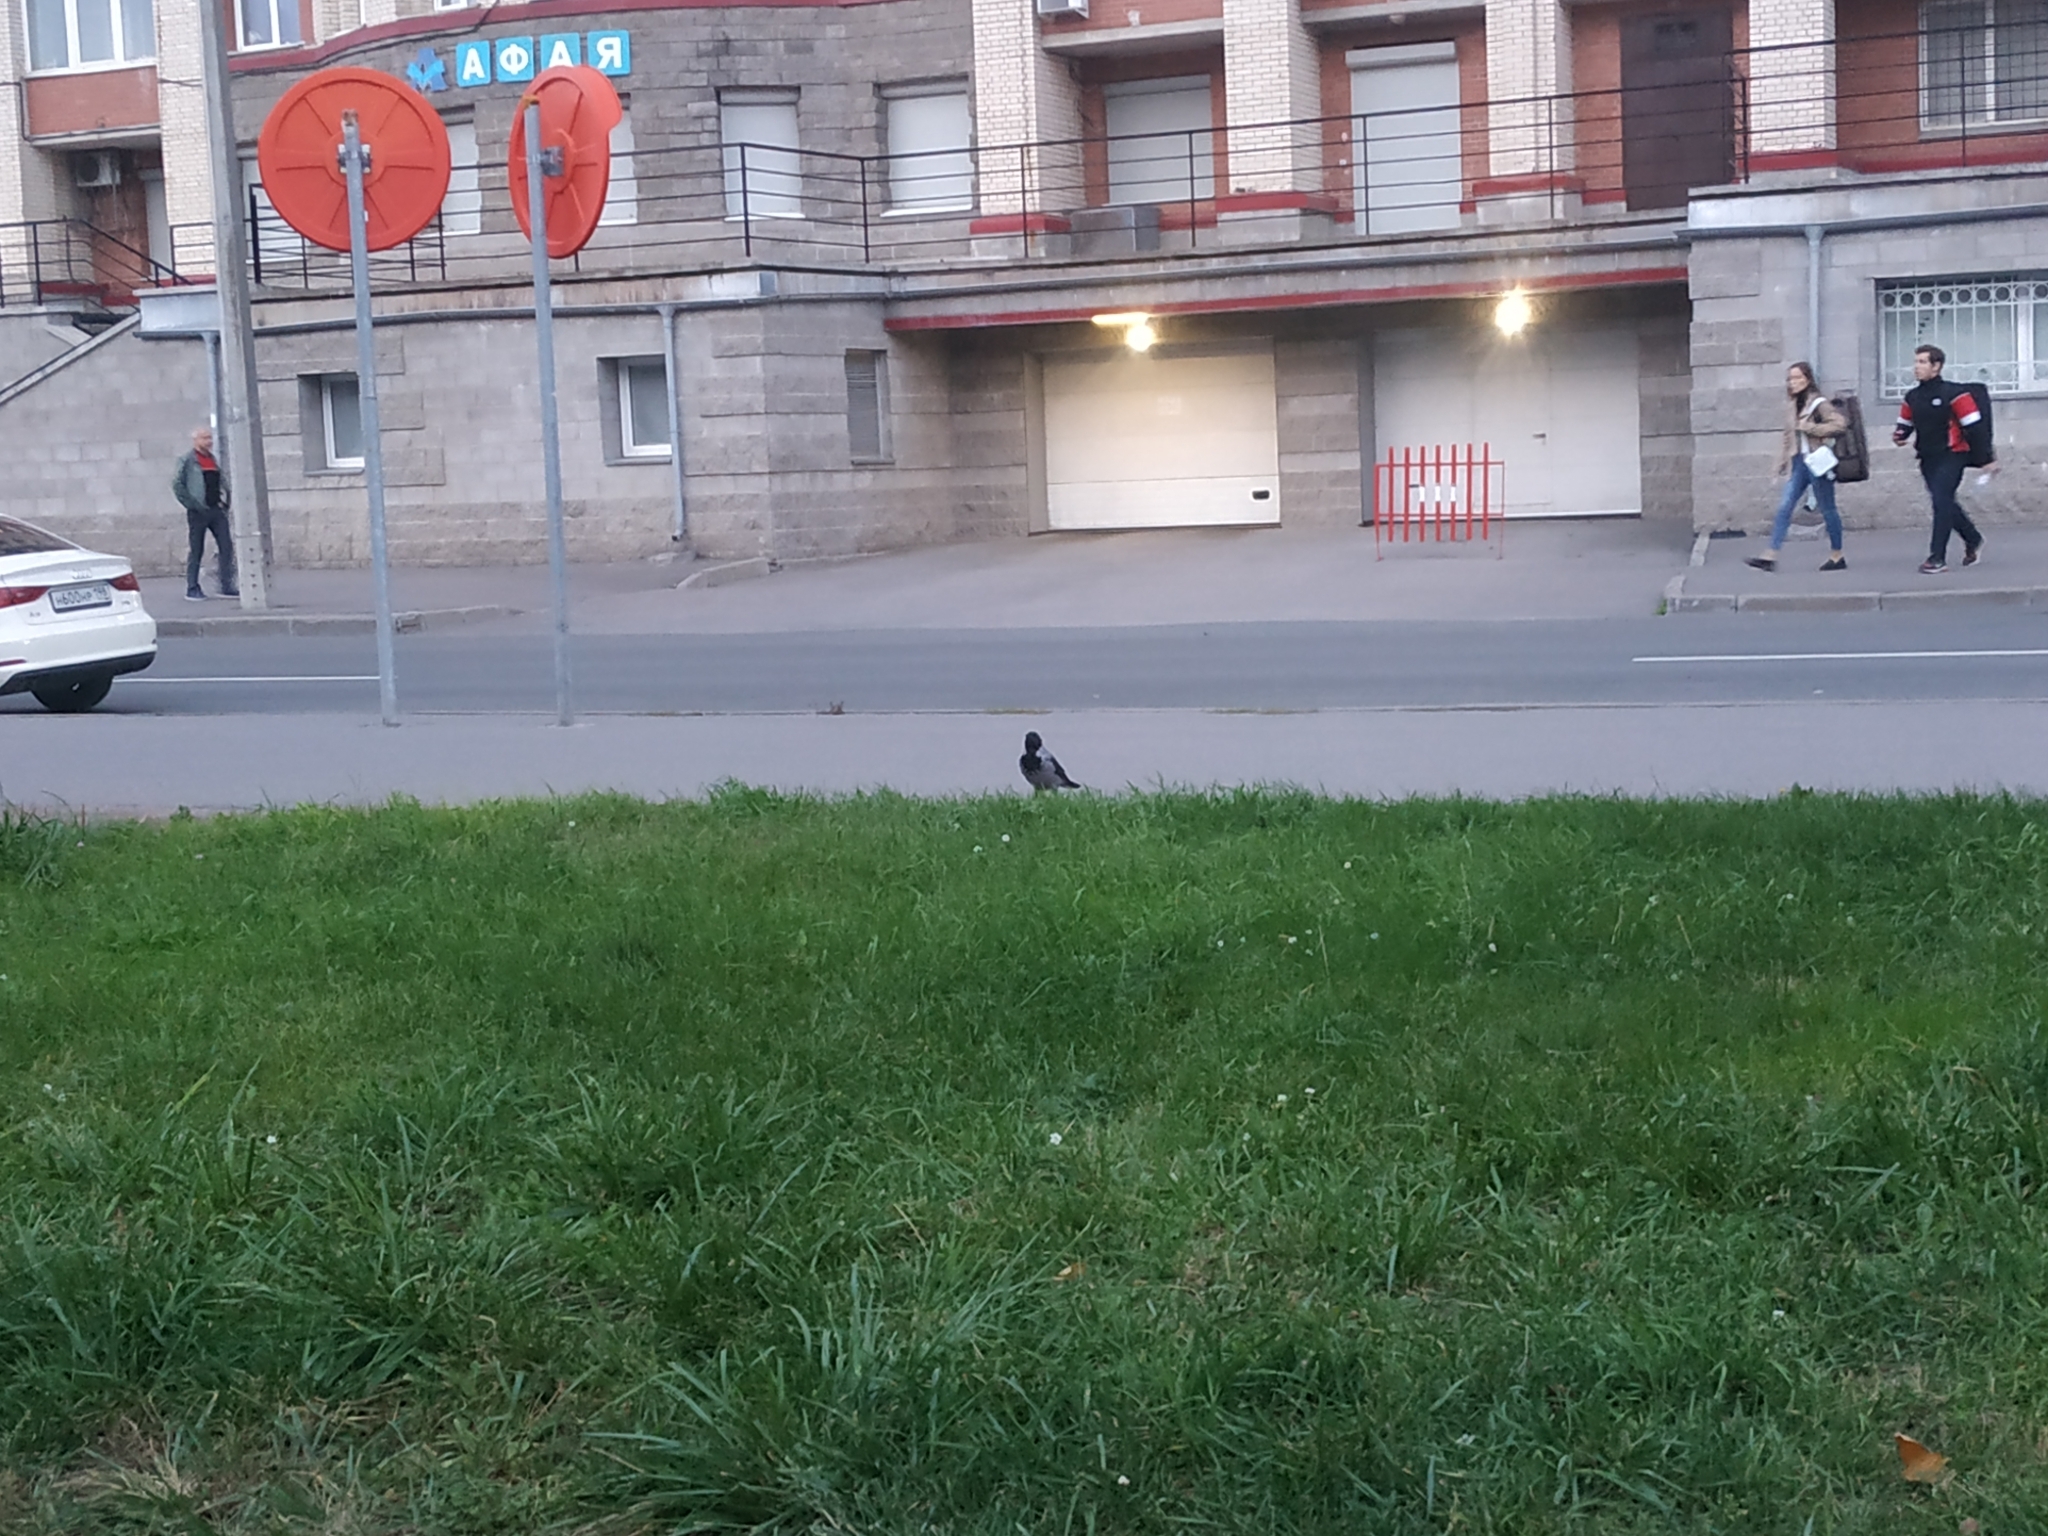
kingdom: Animalia
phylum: Chordata
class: Aves
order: Passeriformes
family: Corvidae
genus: Corvus
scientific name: Corvus cornix
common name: Hooded crow
